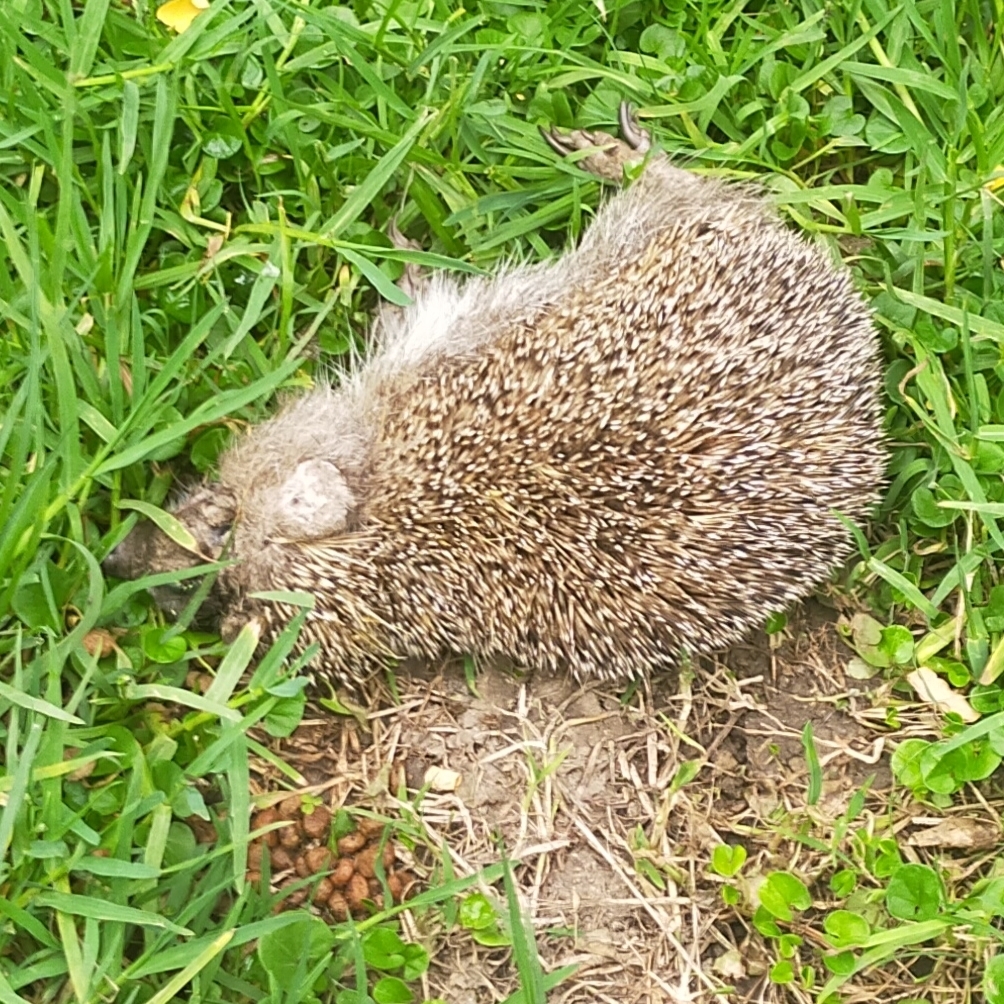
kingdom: Animalia
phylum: Chordata
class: Mammalia
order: Erinaceomorpha
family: Erinaceidae
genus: Erinaceus
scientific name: Erinaceus roumanicus
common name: Northern white-breasted hedgehog
